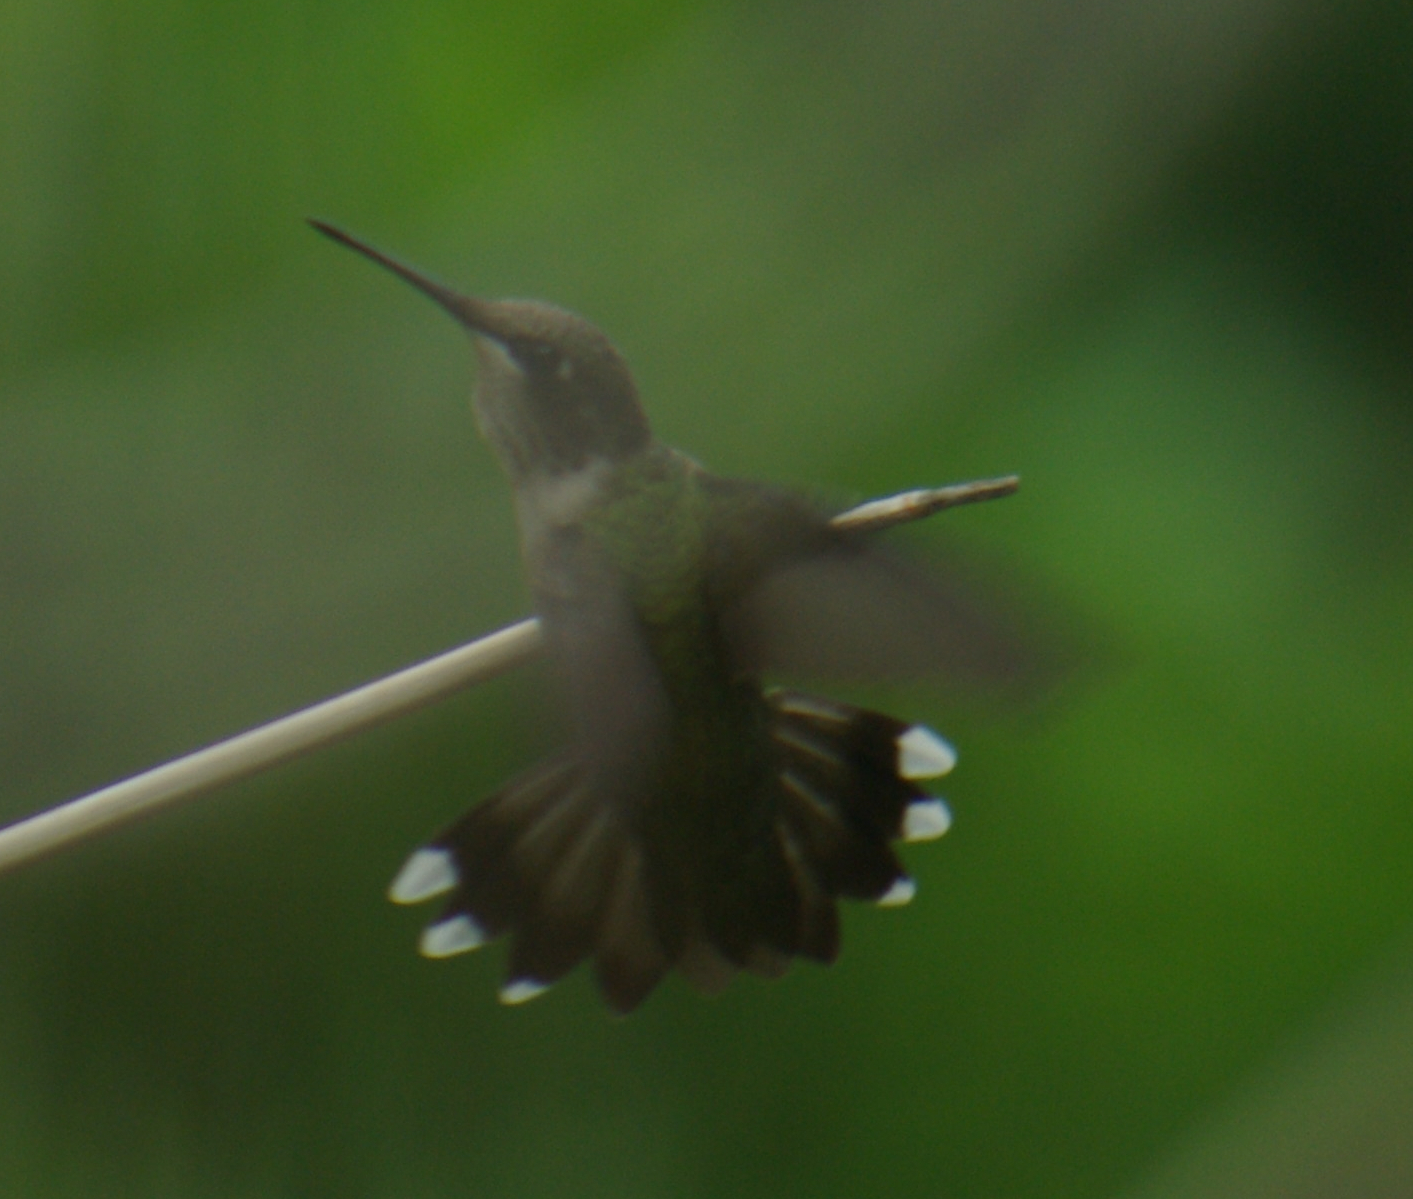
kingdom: Animalia
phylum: Chordata
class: Aves
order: Apodiformes
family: Trochilidae
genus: Archilochus
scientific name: Archilochus colubris
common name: Ruby-throated hummingbird
